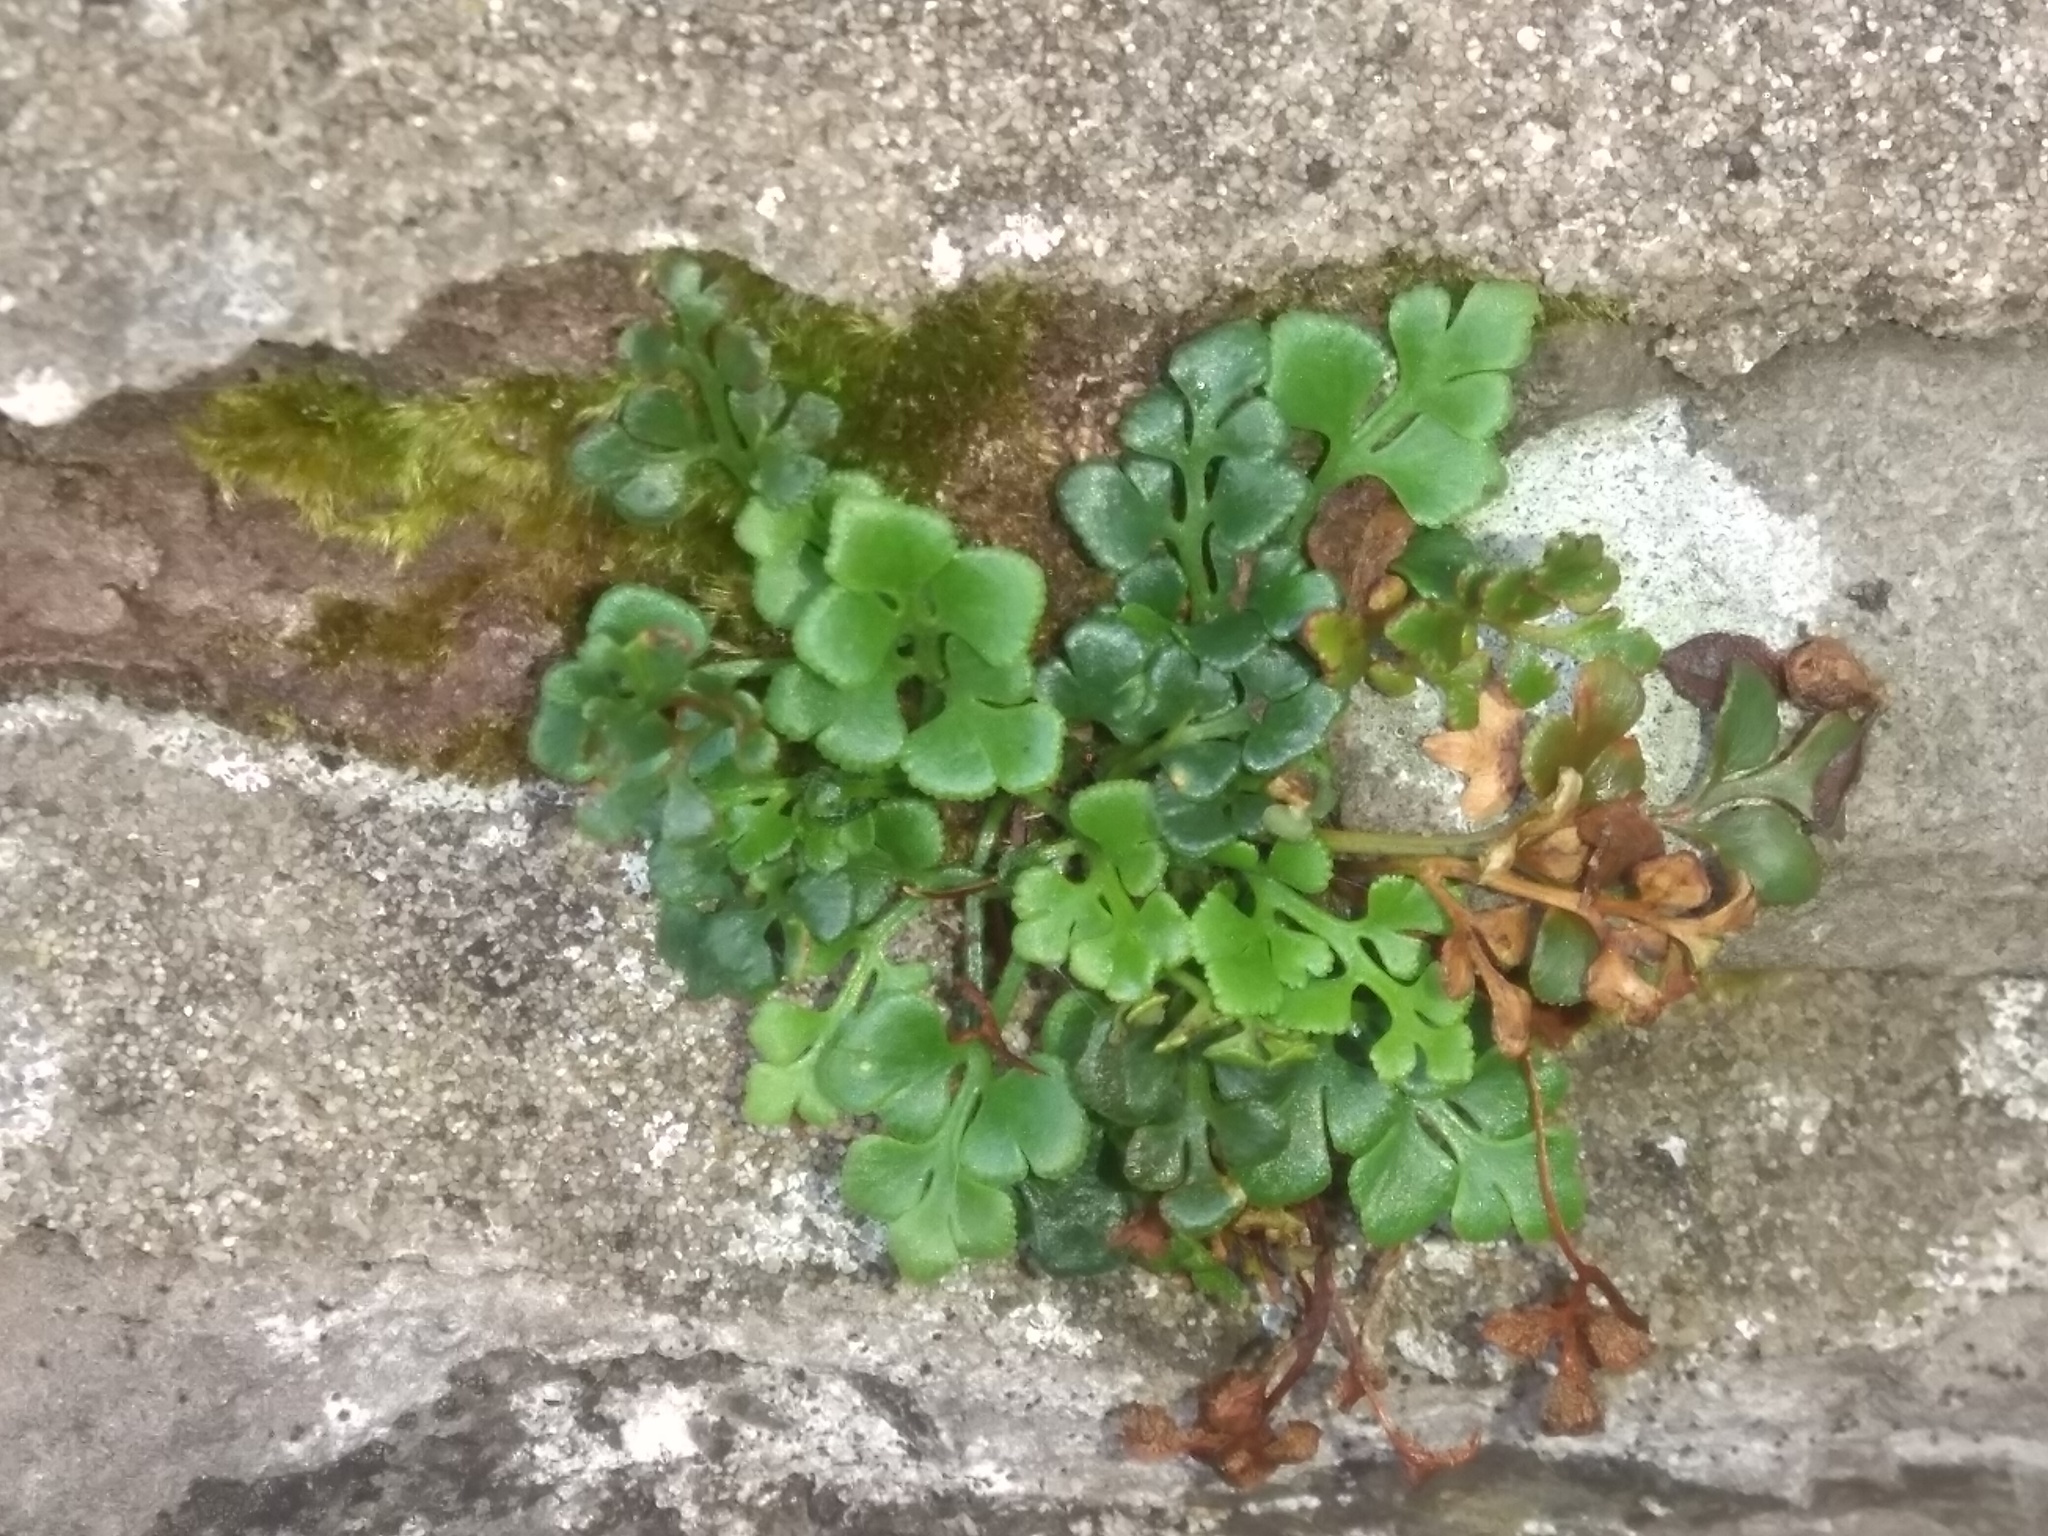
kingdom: Plantae
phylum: Tracheophyta
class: Polypodiopsida
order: Polypodiales
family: Aspleniaceae
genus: Asplenium
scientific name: Asplenium ruta-muraria
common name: Wall-rue
